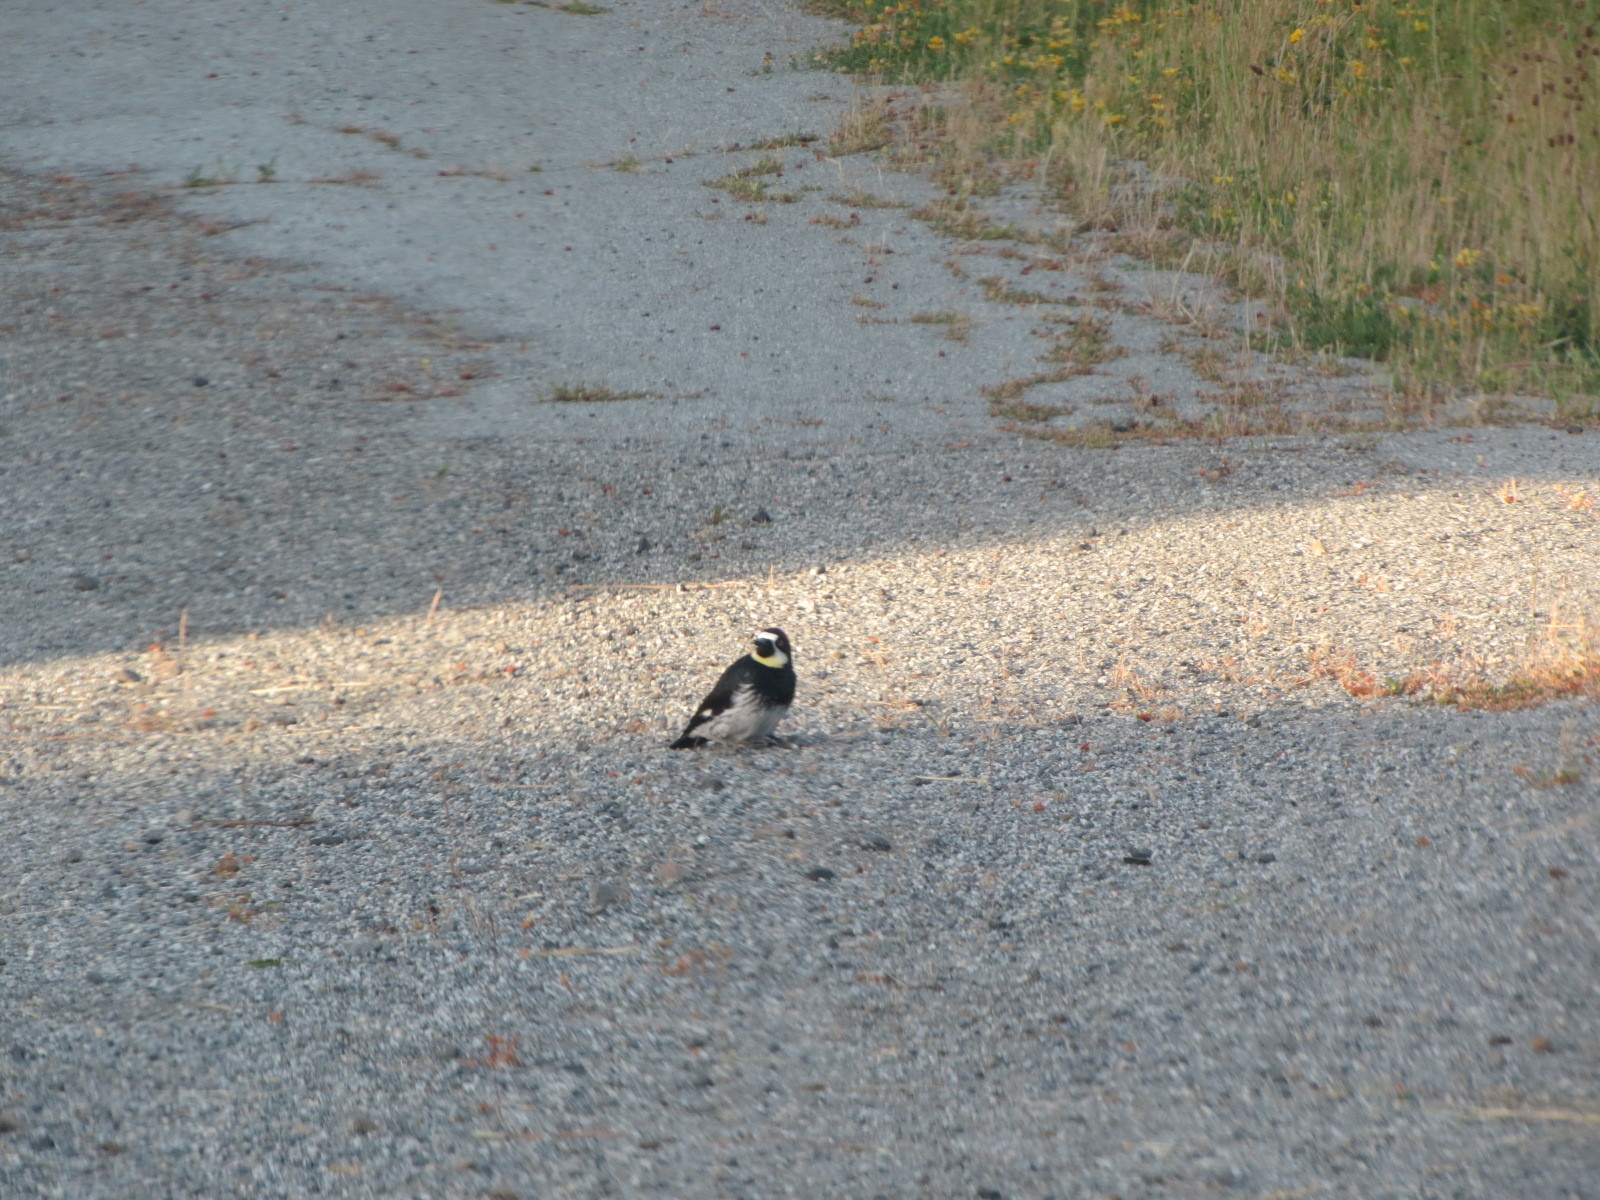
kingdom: Animalia
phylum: Chordata
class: Aves
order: Piciformes
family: Picidae
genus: Melanerpes
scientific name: Melanerpes formicivorus
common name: Acorn woodpecker
